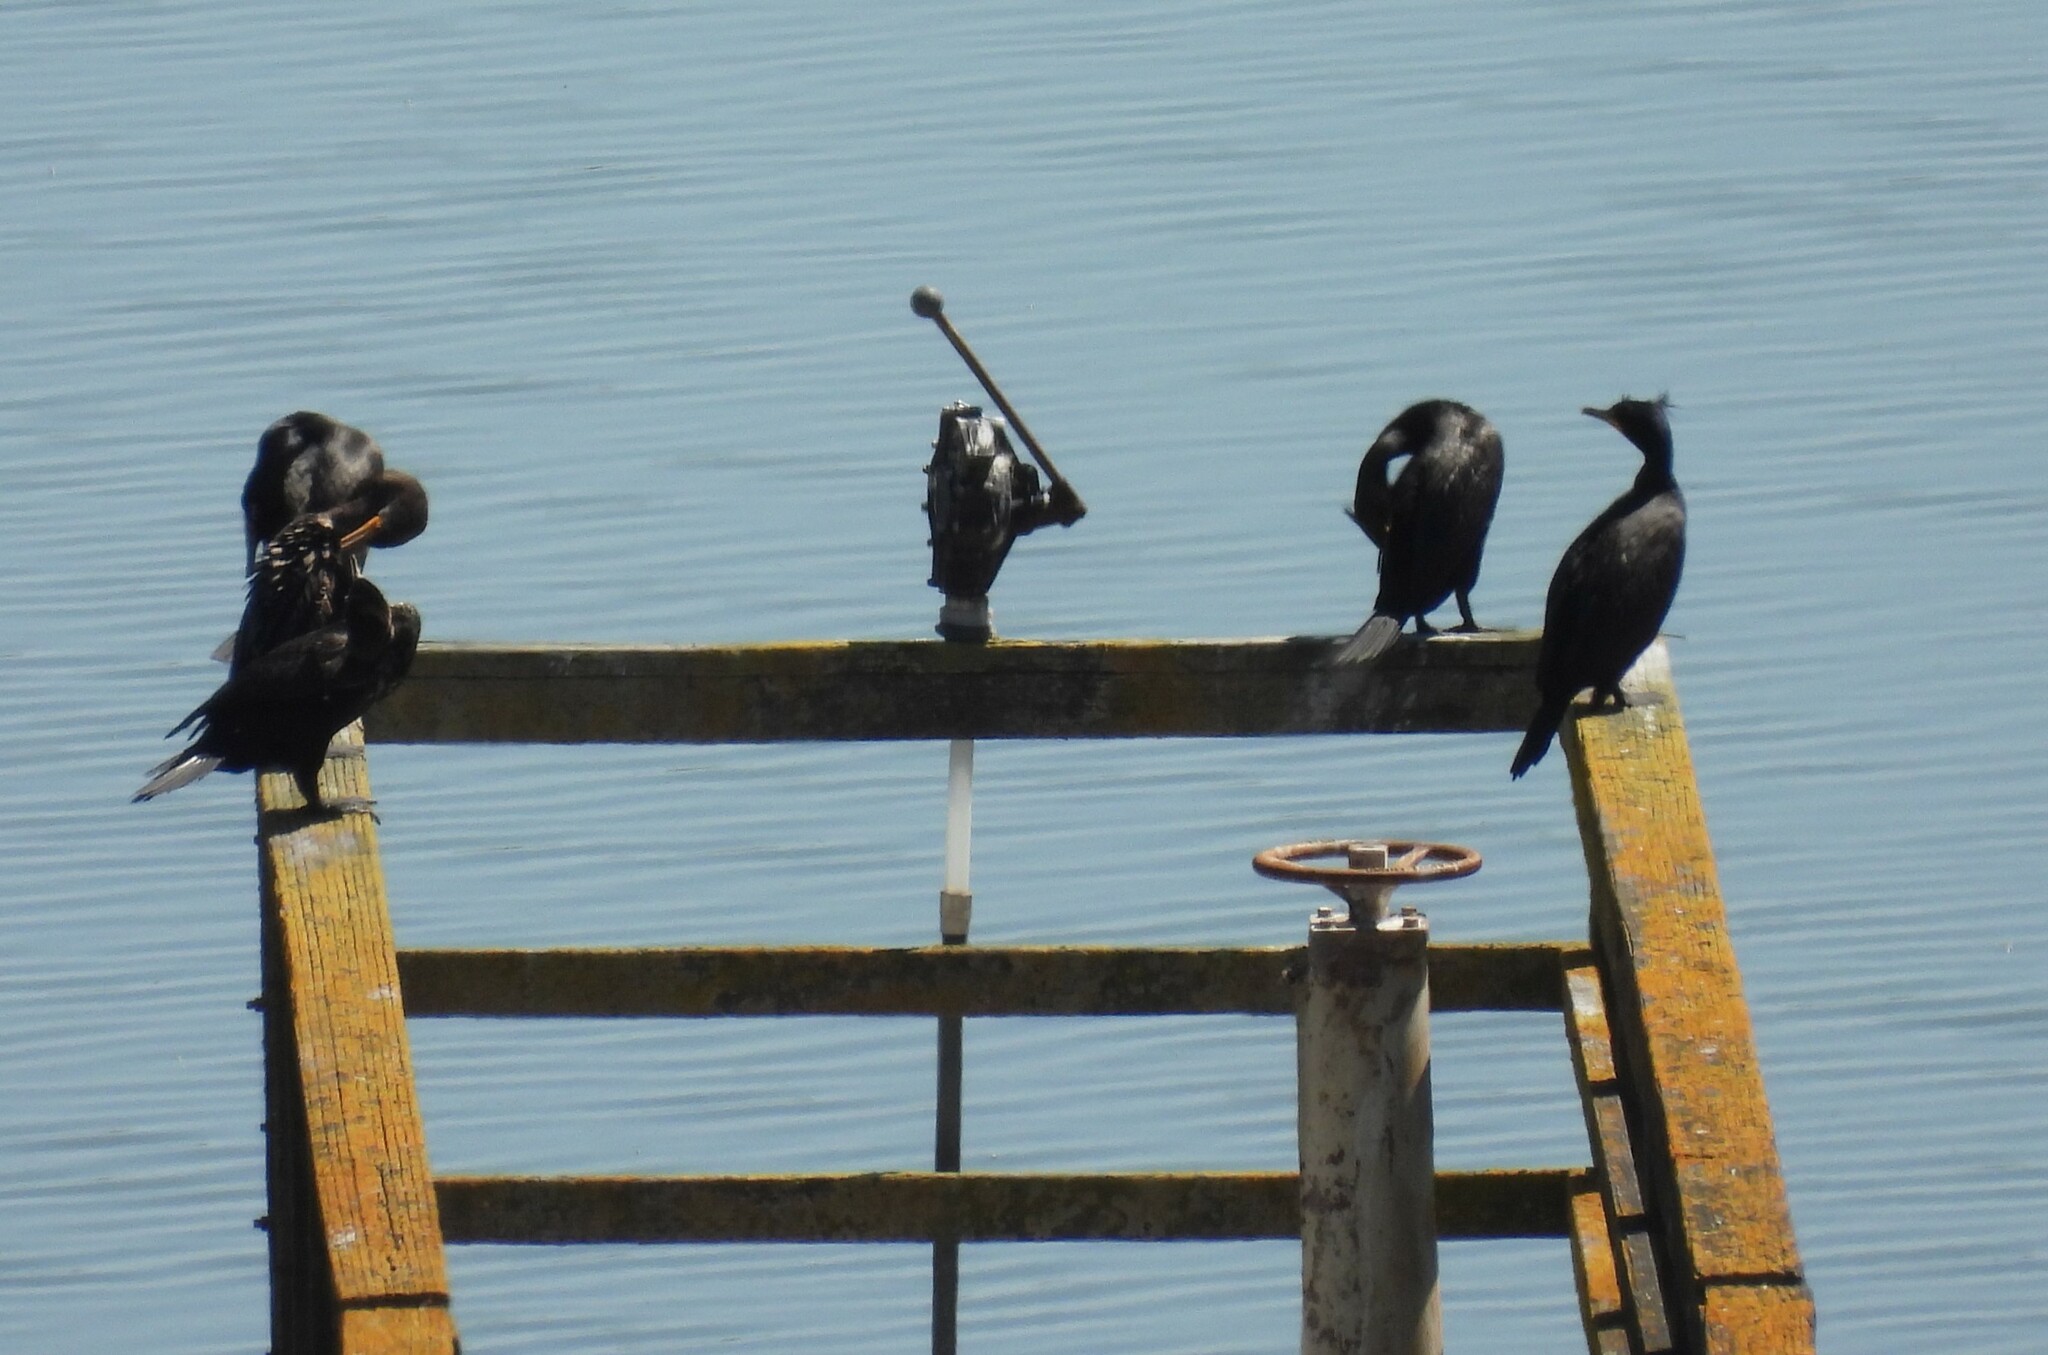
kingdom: Animalia
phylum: Chordata
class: Aves
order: Suliformes
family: Phalacrocoracidae
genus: Phalacrocorax
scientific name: Phalacrocorax auritus
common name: Double-crested cormorant
